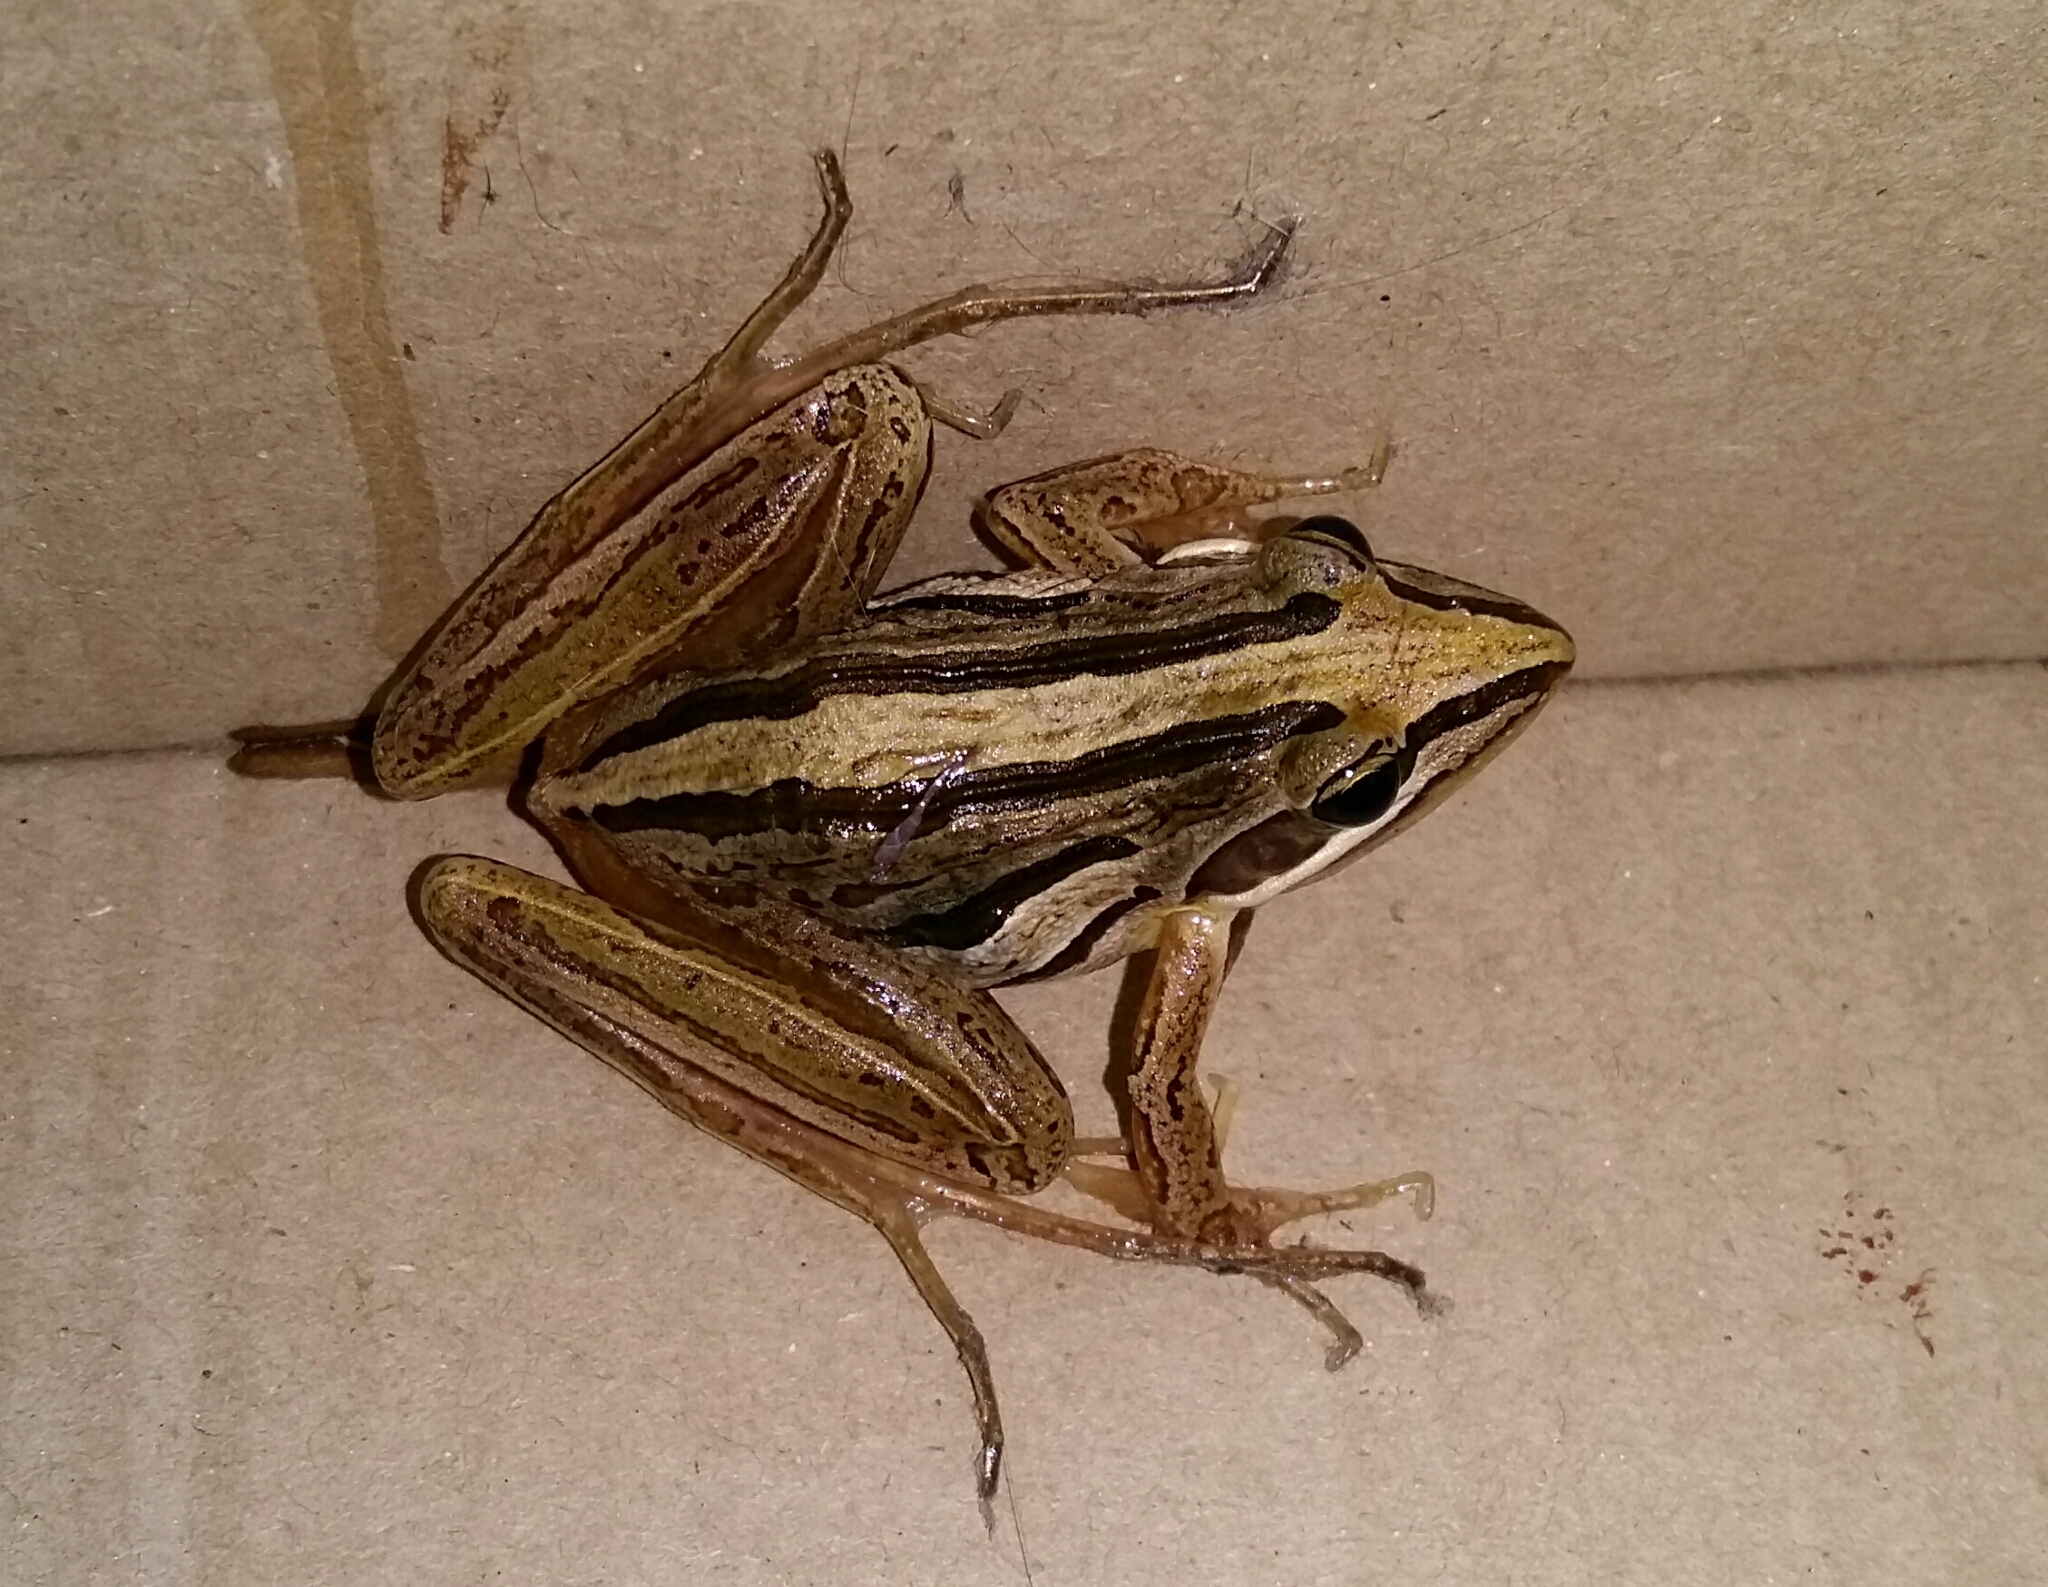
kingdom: Animalia
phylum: Chordata
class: Amphibia
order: Anura
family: Pyxicephalidae
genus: Strongylopus
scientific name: Strongylopus fasciatus
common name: Striped stream frog
